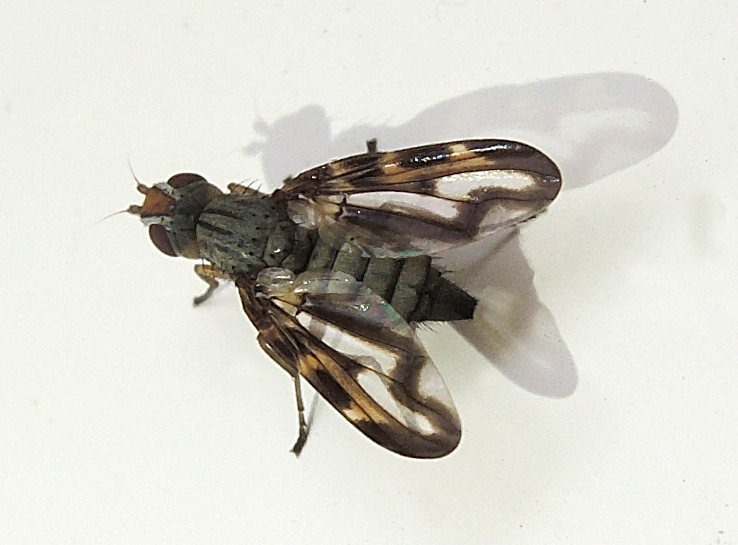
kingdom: Animalia
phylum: Arthropoda
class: Insecta
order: Diptera
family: Ulidiidae
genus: Otites
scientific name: Otites lamed
